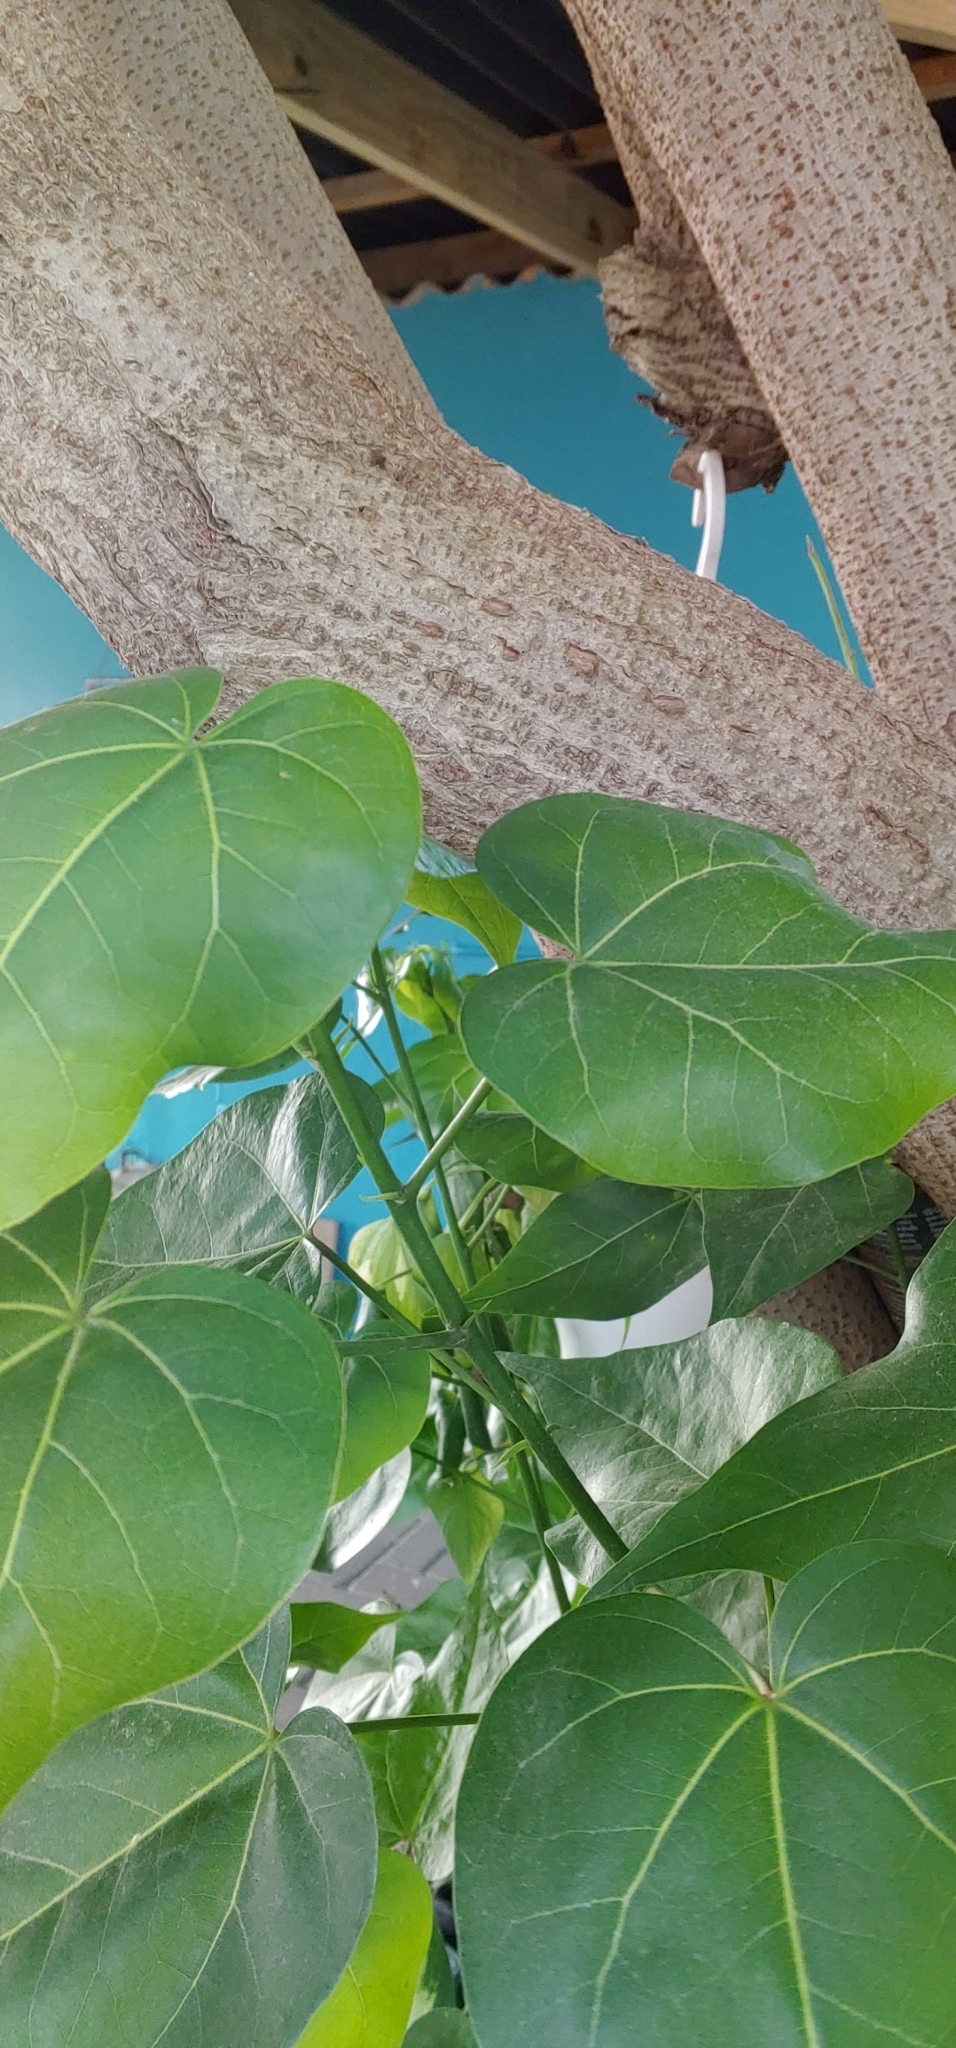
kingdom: Plantae
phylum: Tracheophyta
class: Magnoliopsida
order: Malvales
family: Malvaceae
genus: Thespesia
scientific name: Thespesia populnea
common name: Seaside mahoe
